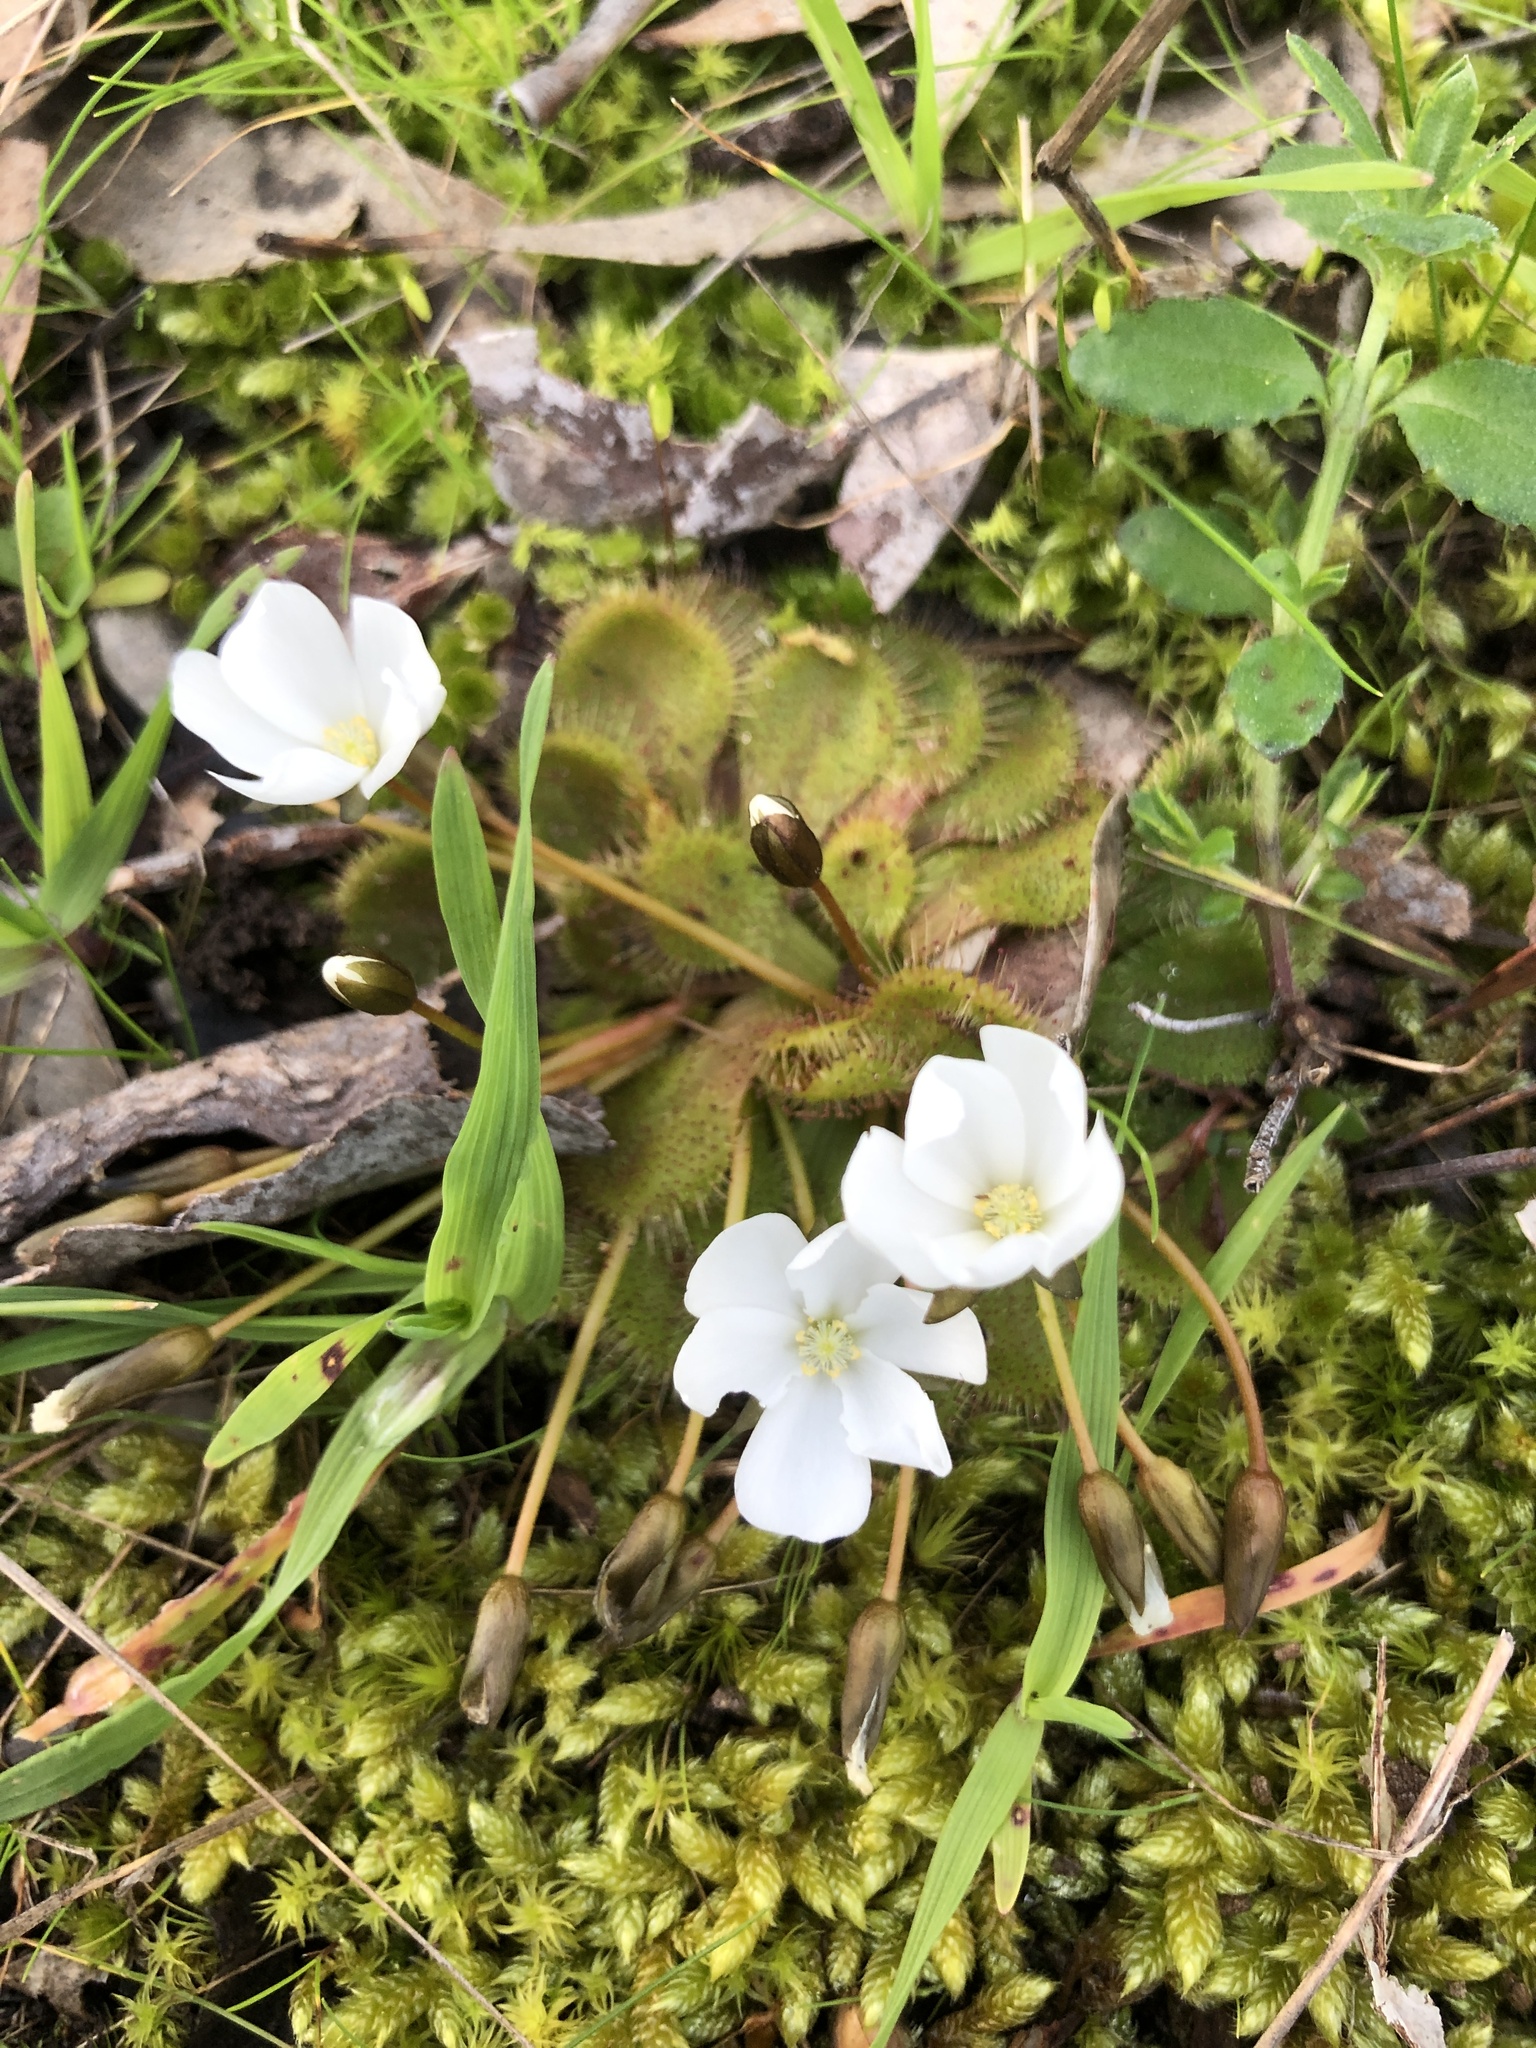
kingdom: Plantae
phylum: Tracheophyta
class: Magnoliopsida
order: Caryophyllales
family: Droseraceae
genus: Drosera
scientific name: Drosera whittakeri
